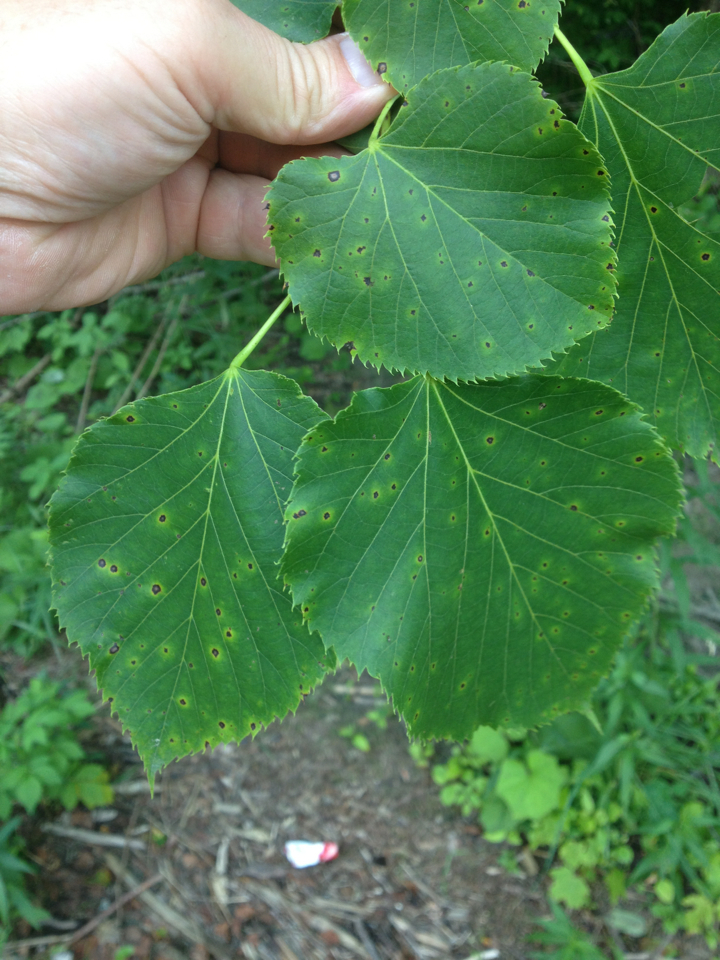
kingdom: Plantae
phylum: Tracheophyta
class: Magnoliopsida
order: Malvales
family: Malvaceae
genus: Tilia
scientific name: Tilia americana
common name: Basswood
